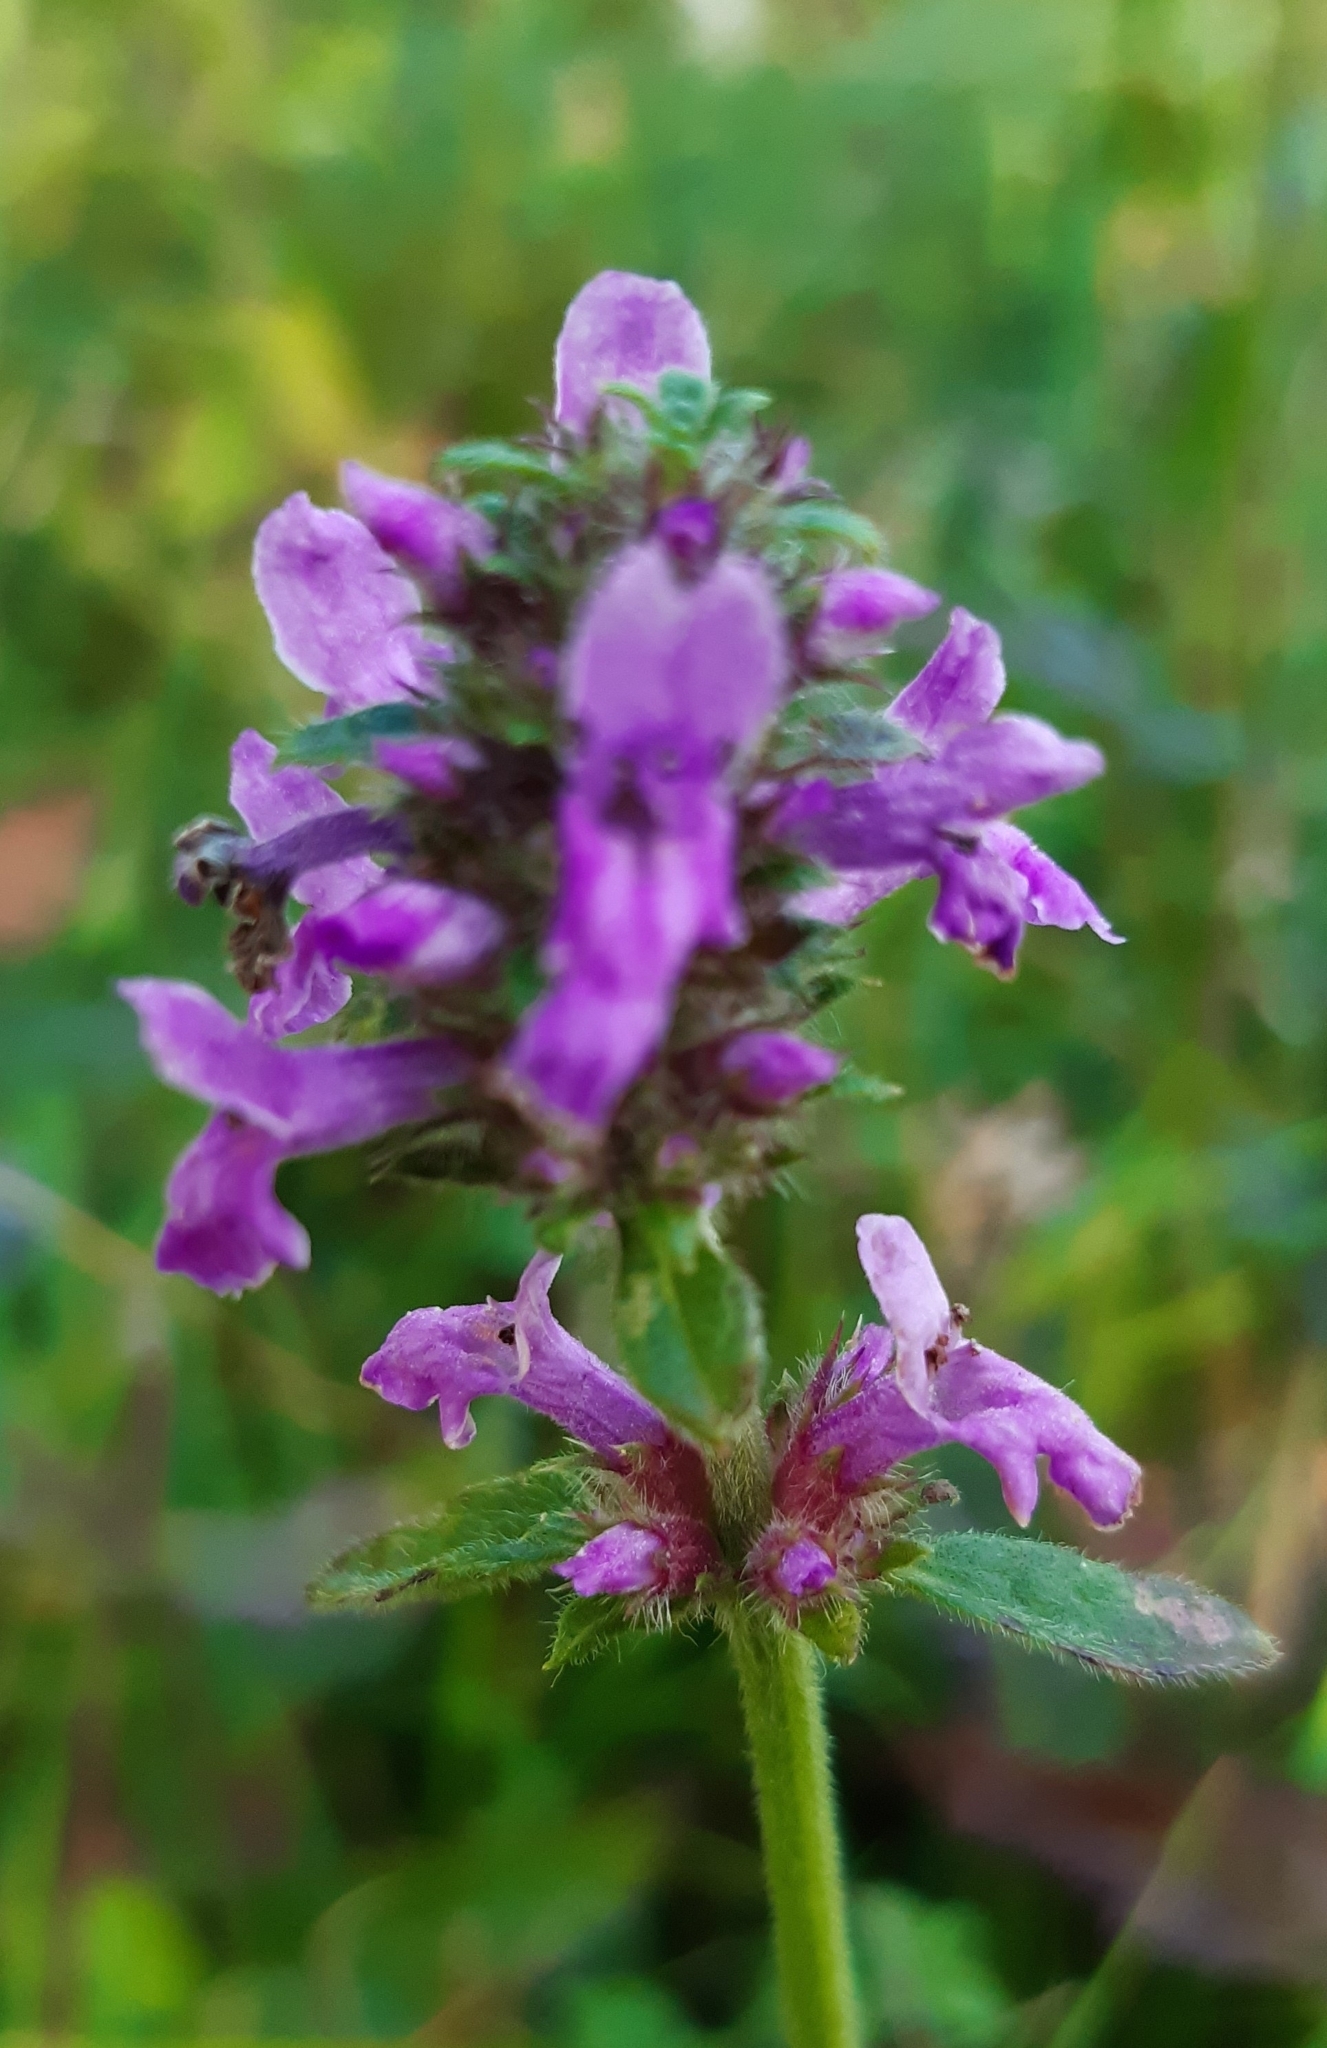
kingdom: Plantae
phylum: Tracheophyta
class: Magnoliopsida
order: Lamiales
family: Lamiaceae
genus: Betonica
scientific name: Betonica officinalis
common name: Bishop's-wort
